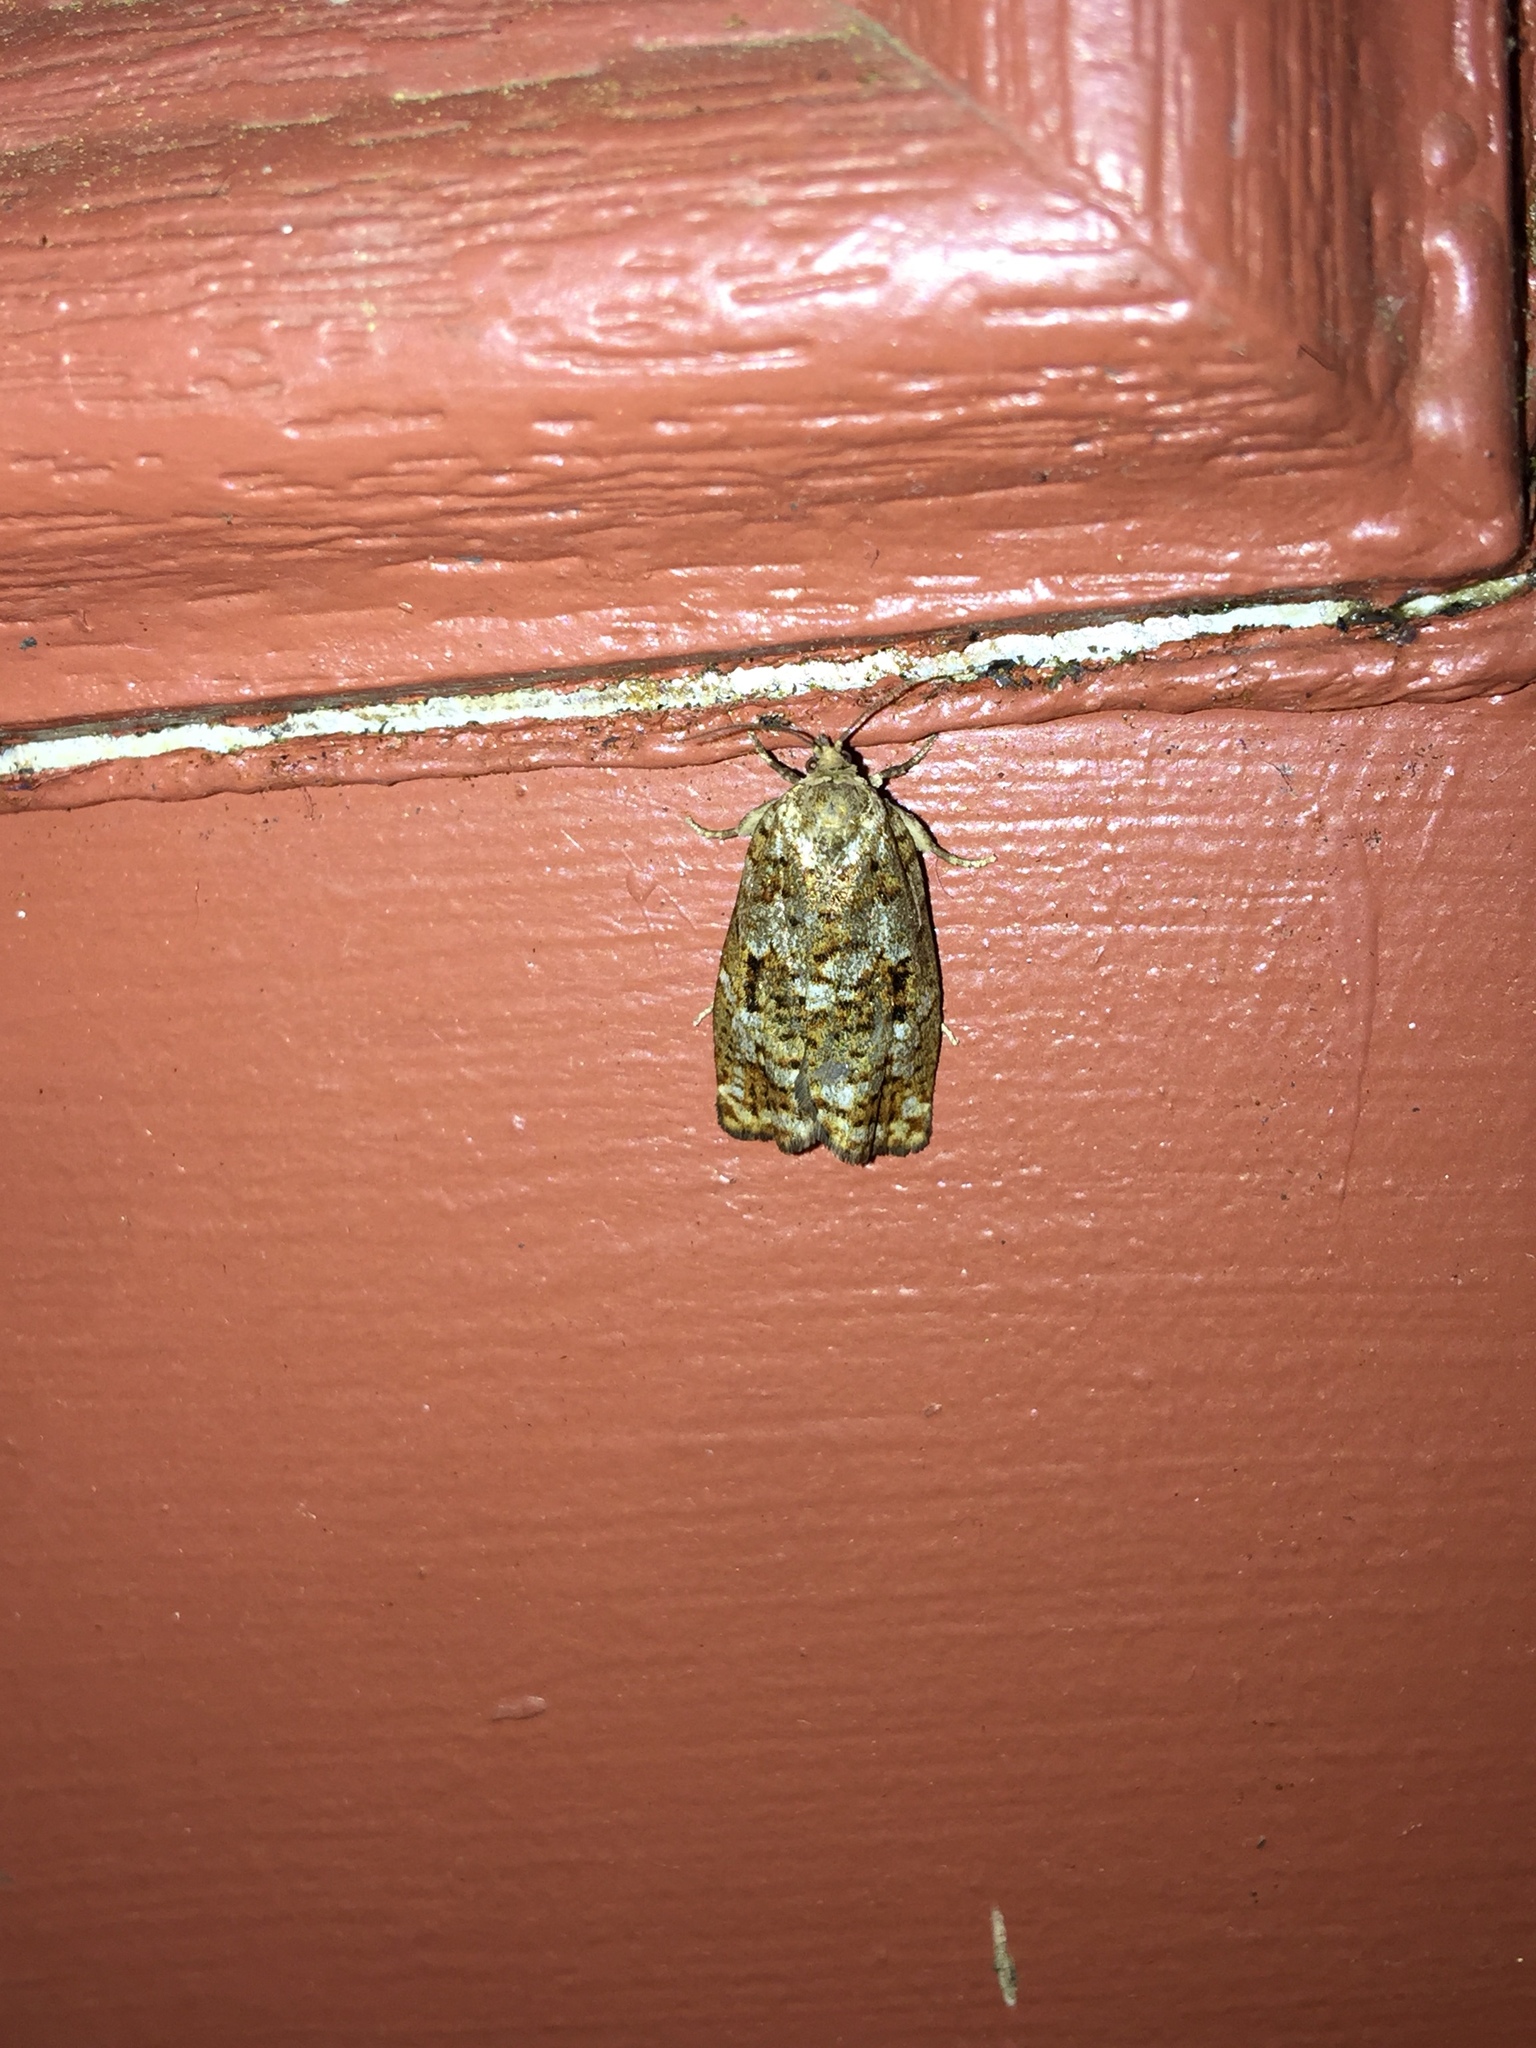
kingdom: Animalia
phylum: Arthropoda
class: Insecta
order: Lepidoptera
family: Tortricidae
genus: Choristoneura
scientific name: Choristoneura fumiferana
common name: Spruce budworm
